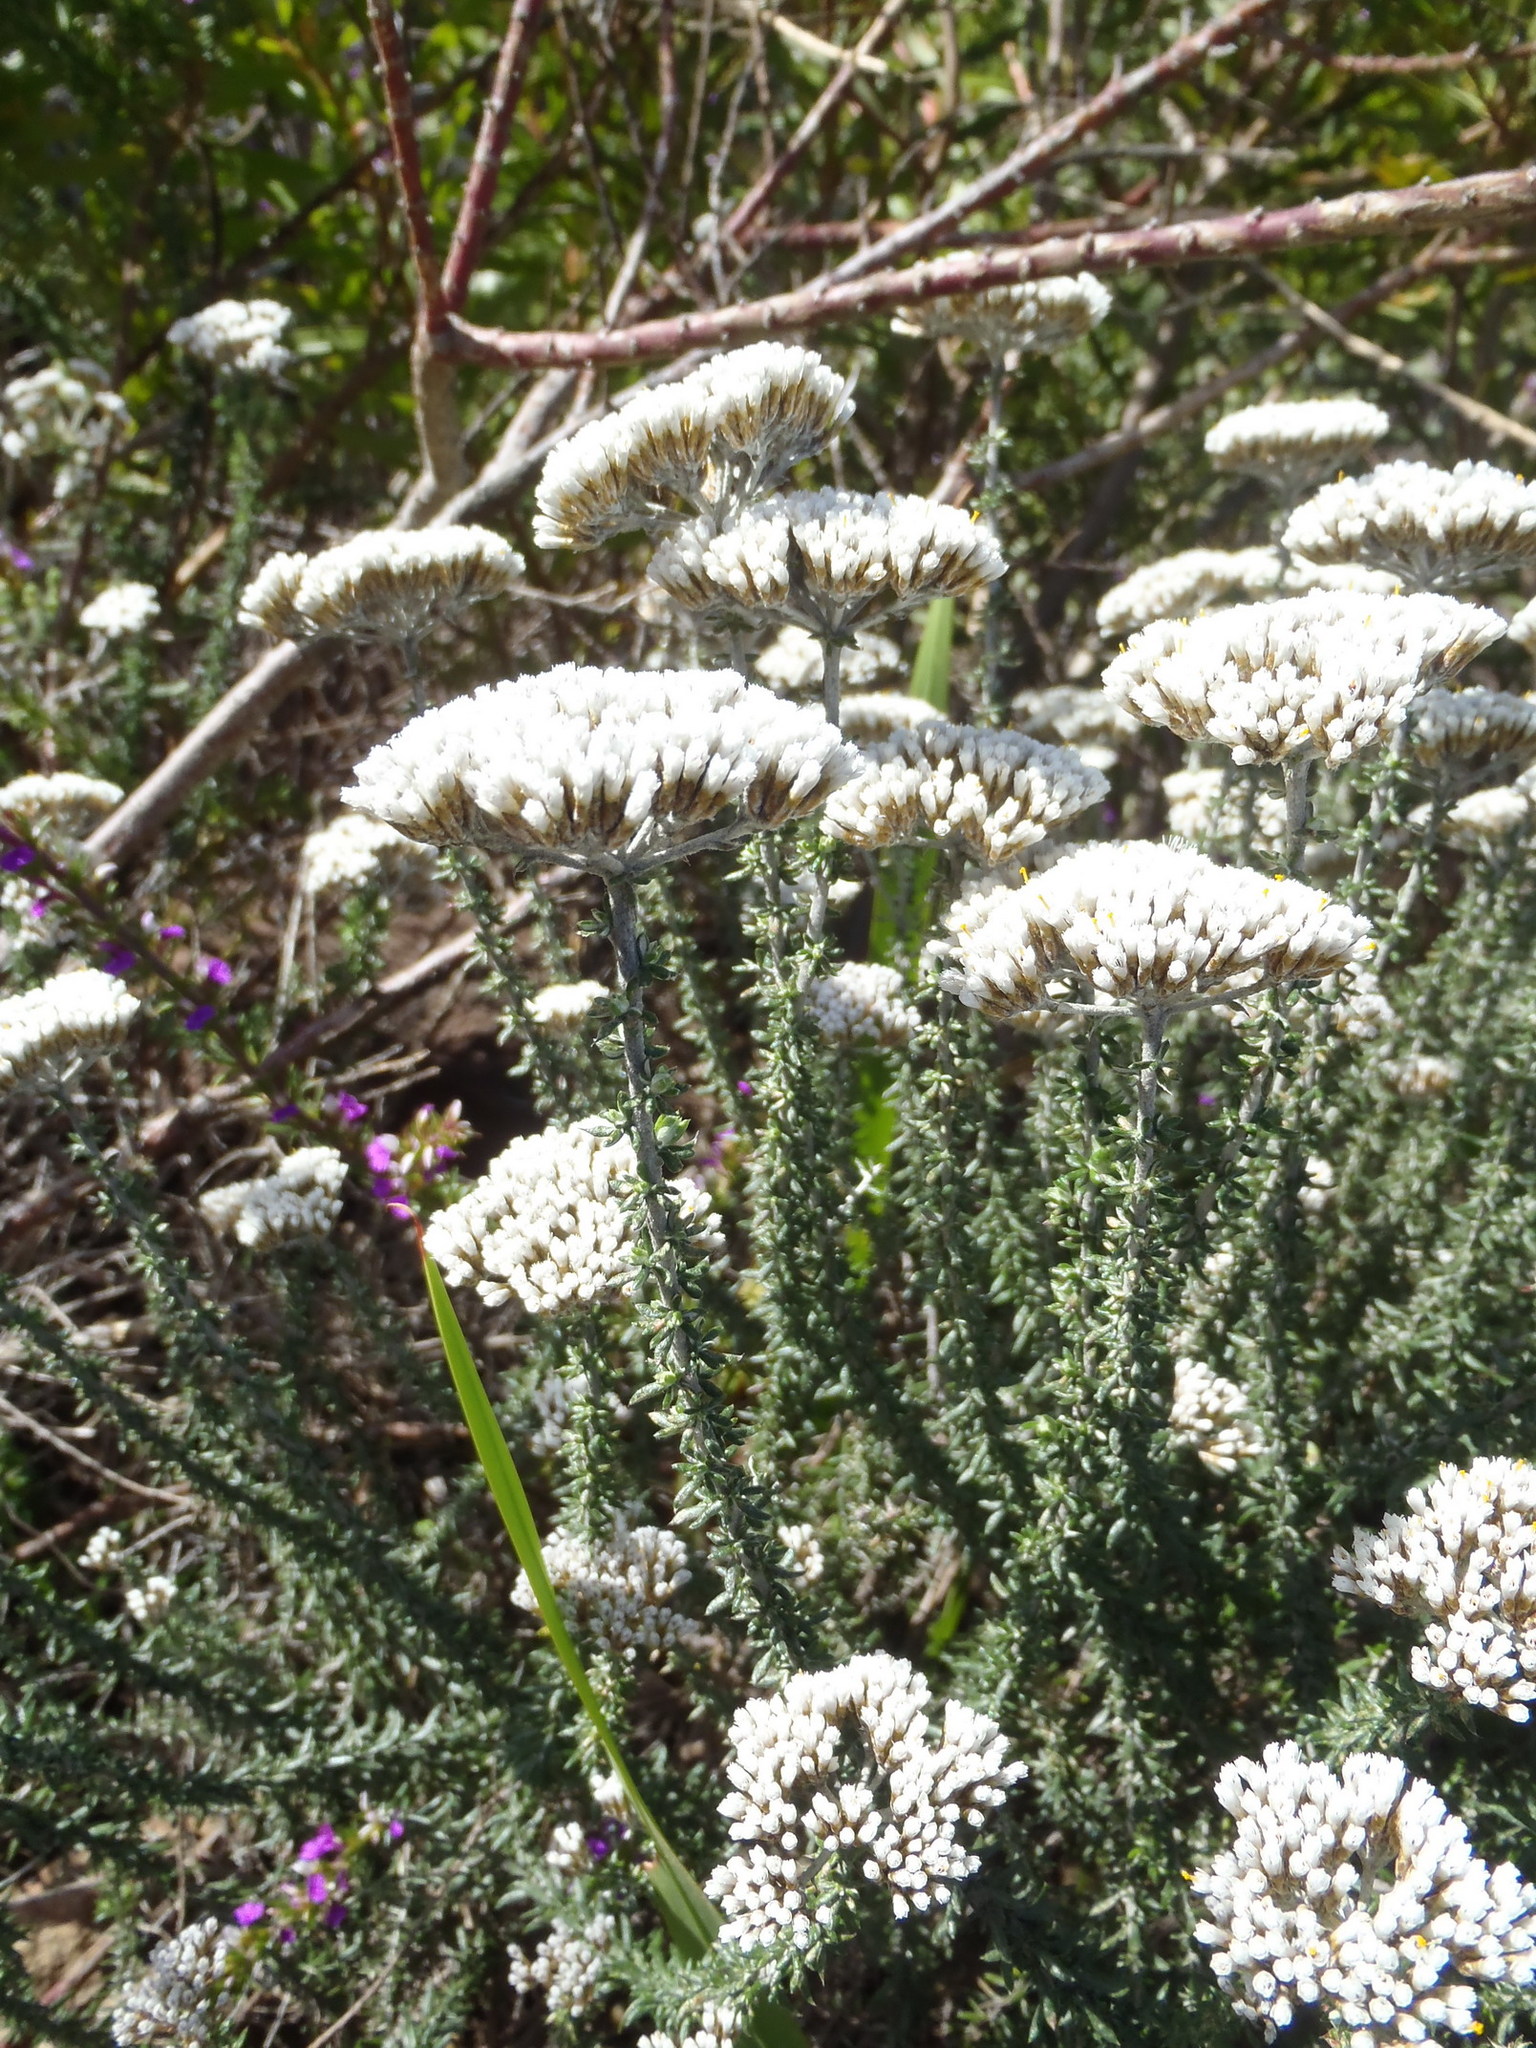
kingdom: Plantae
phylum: Tracheophyta
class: Magnoliopsida
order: Asterales
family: Asteraceae
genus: Metalasia
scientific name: Metalasia muricata
